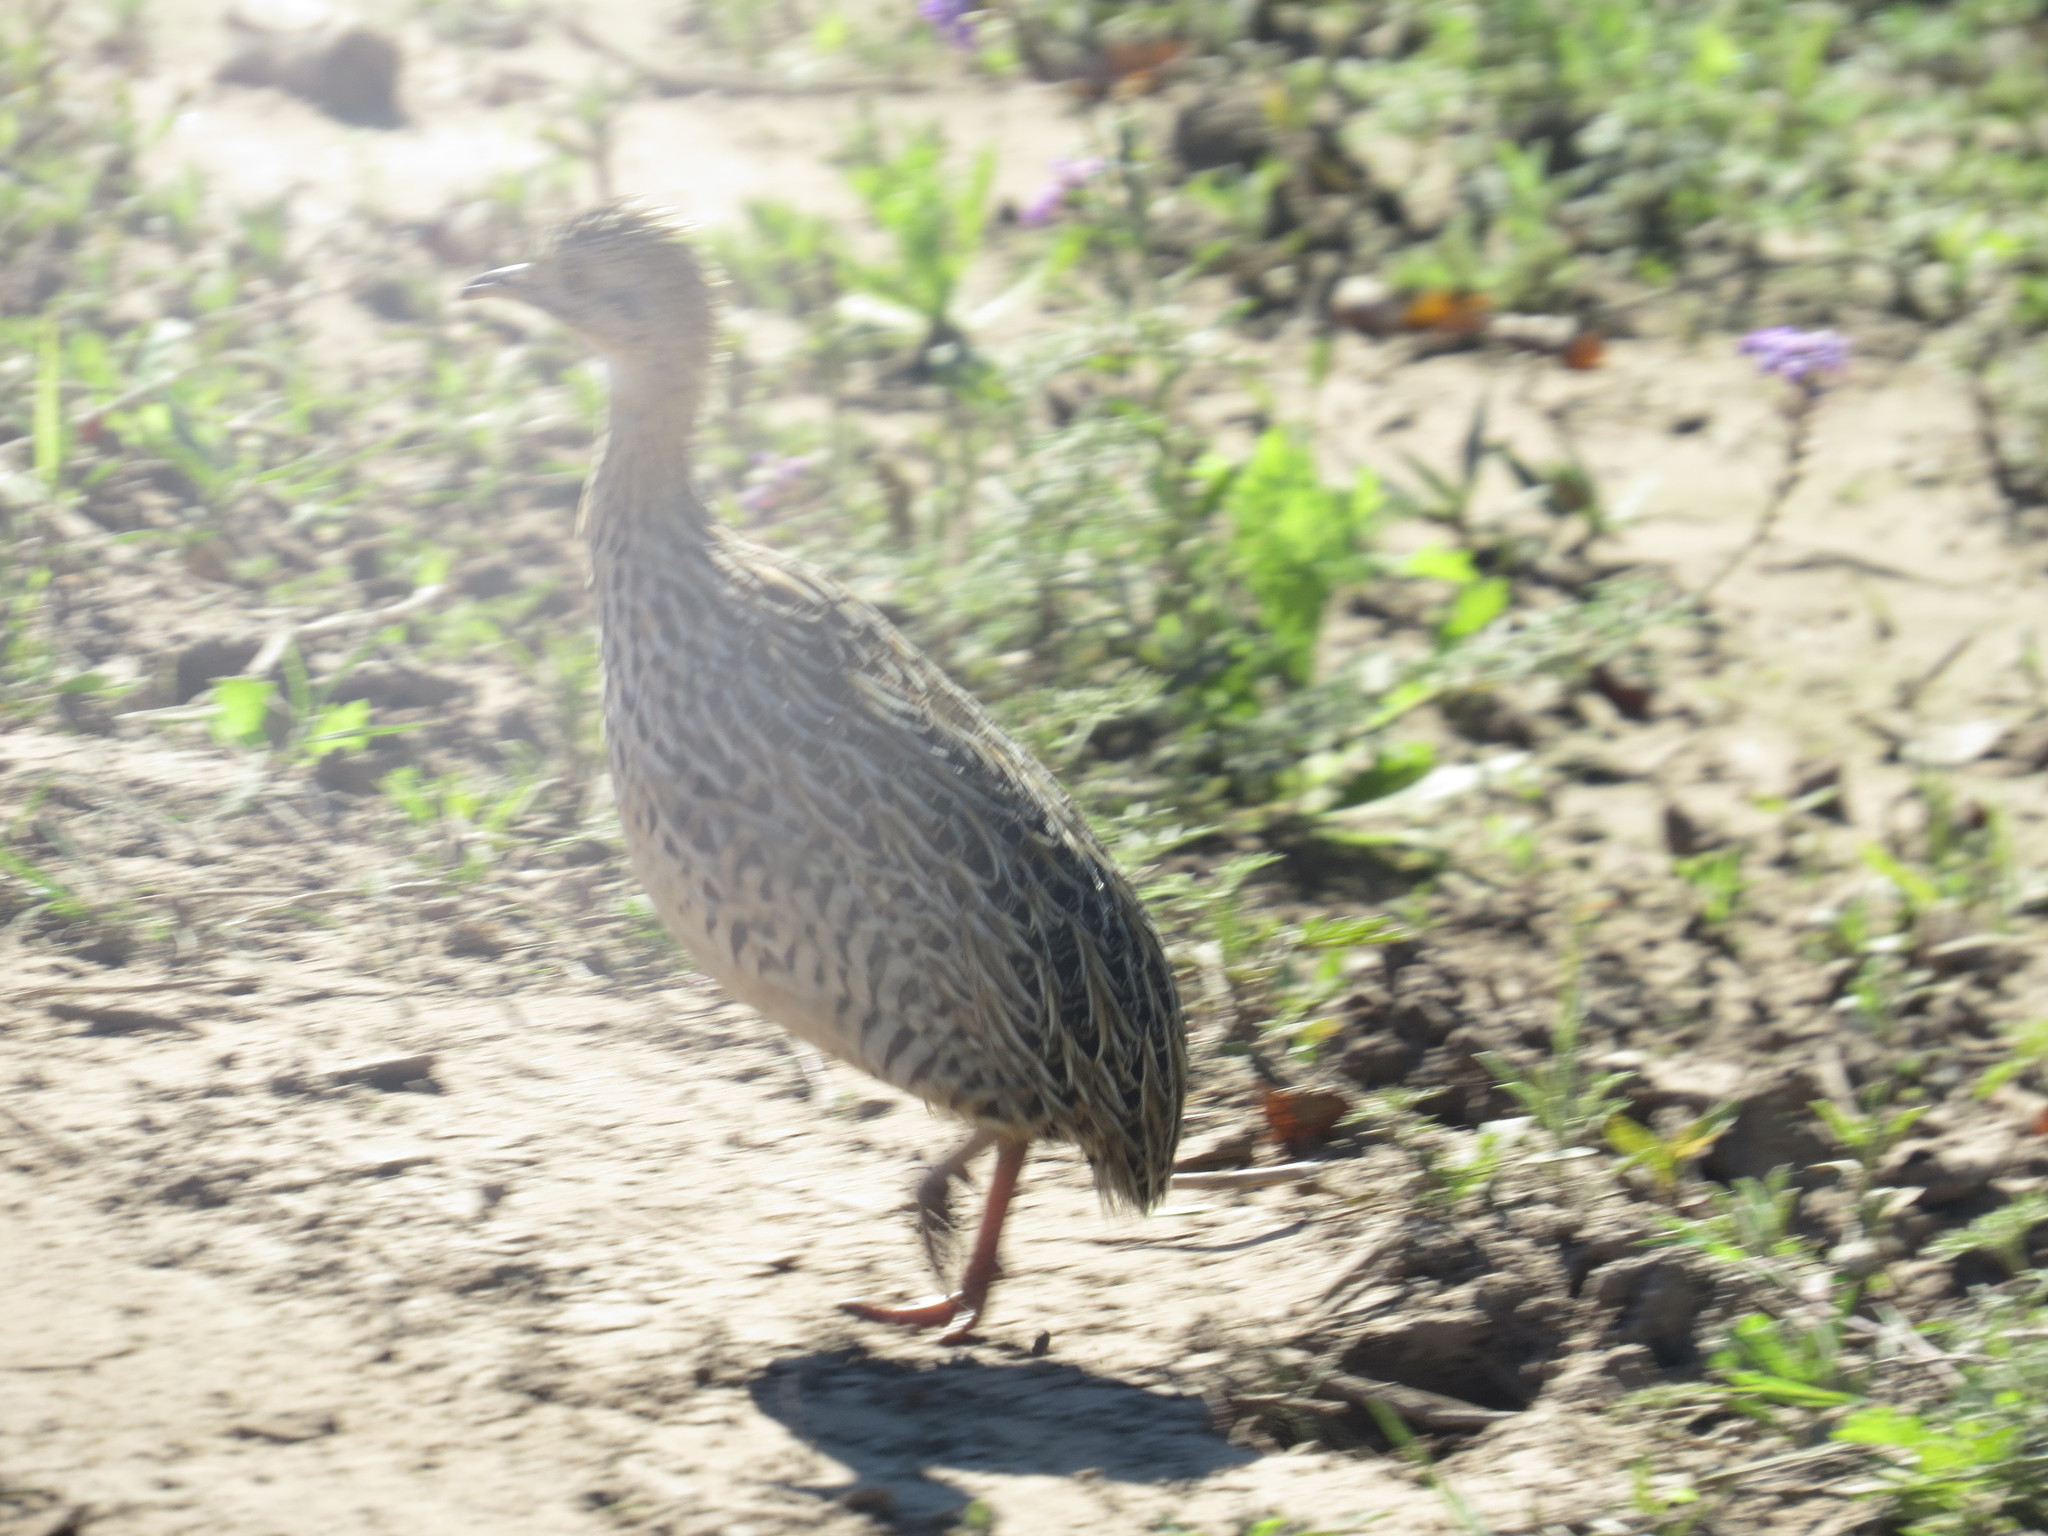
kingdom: Animalia
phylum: Chordata
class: Aves
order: Tinamiformes
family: Tinamidae
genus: Nothura
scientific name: Nothura maculosa
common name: Spotted nothura
